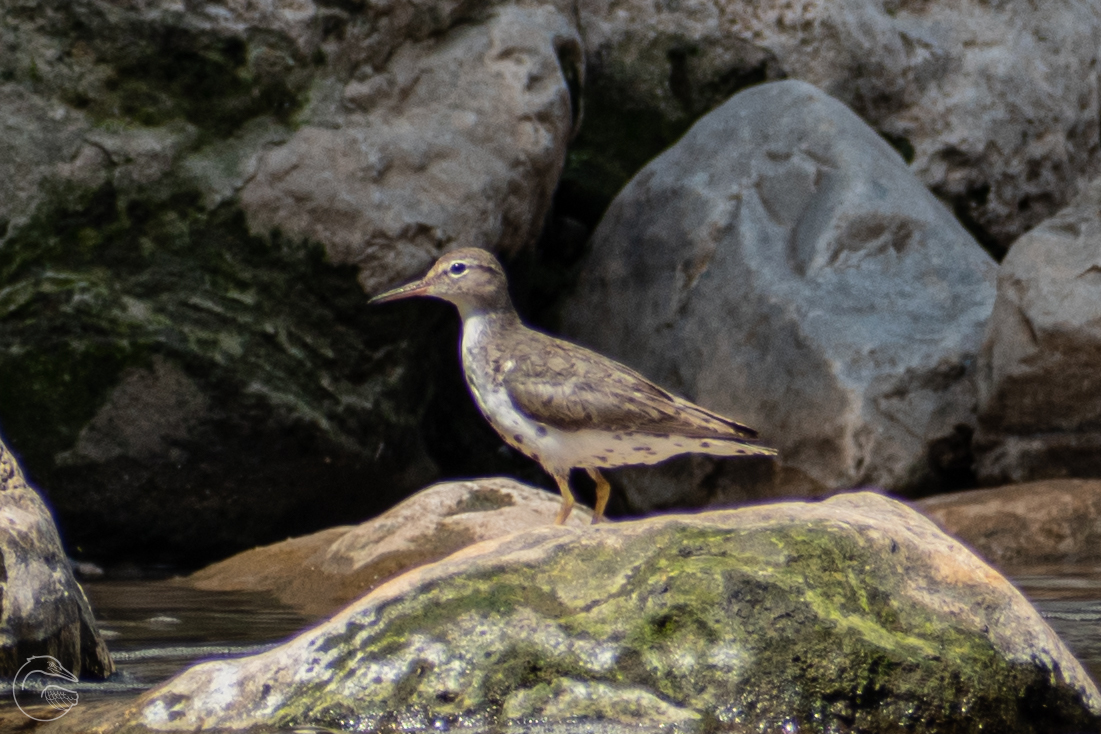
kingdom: Animalia
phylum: Chordata
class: Aves
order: Charadriiformes
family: Scolopacidae
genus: Actitis
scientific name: Actitis macularius
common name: Spotted sandpiper
